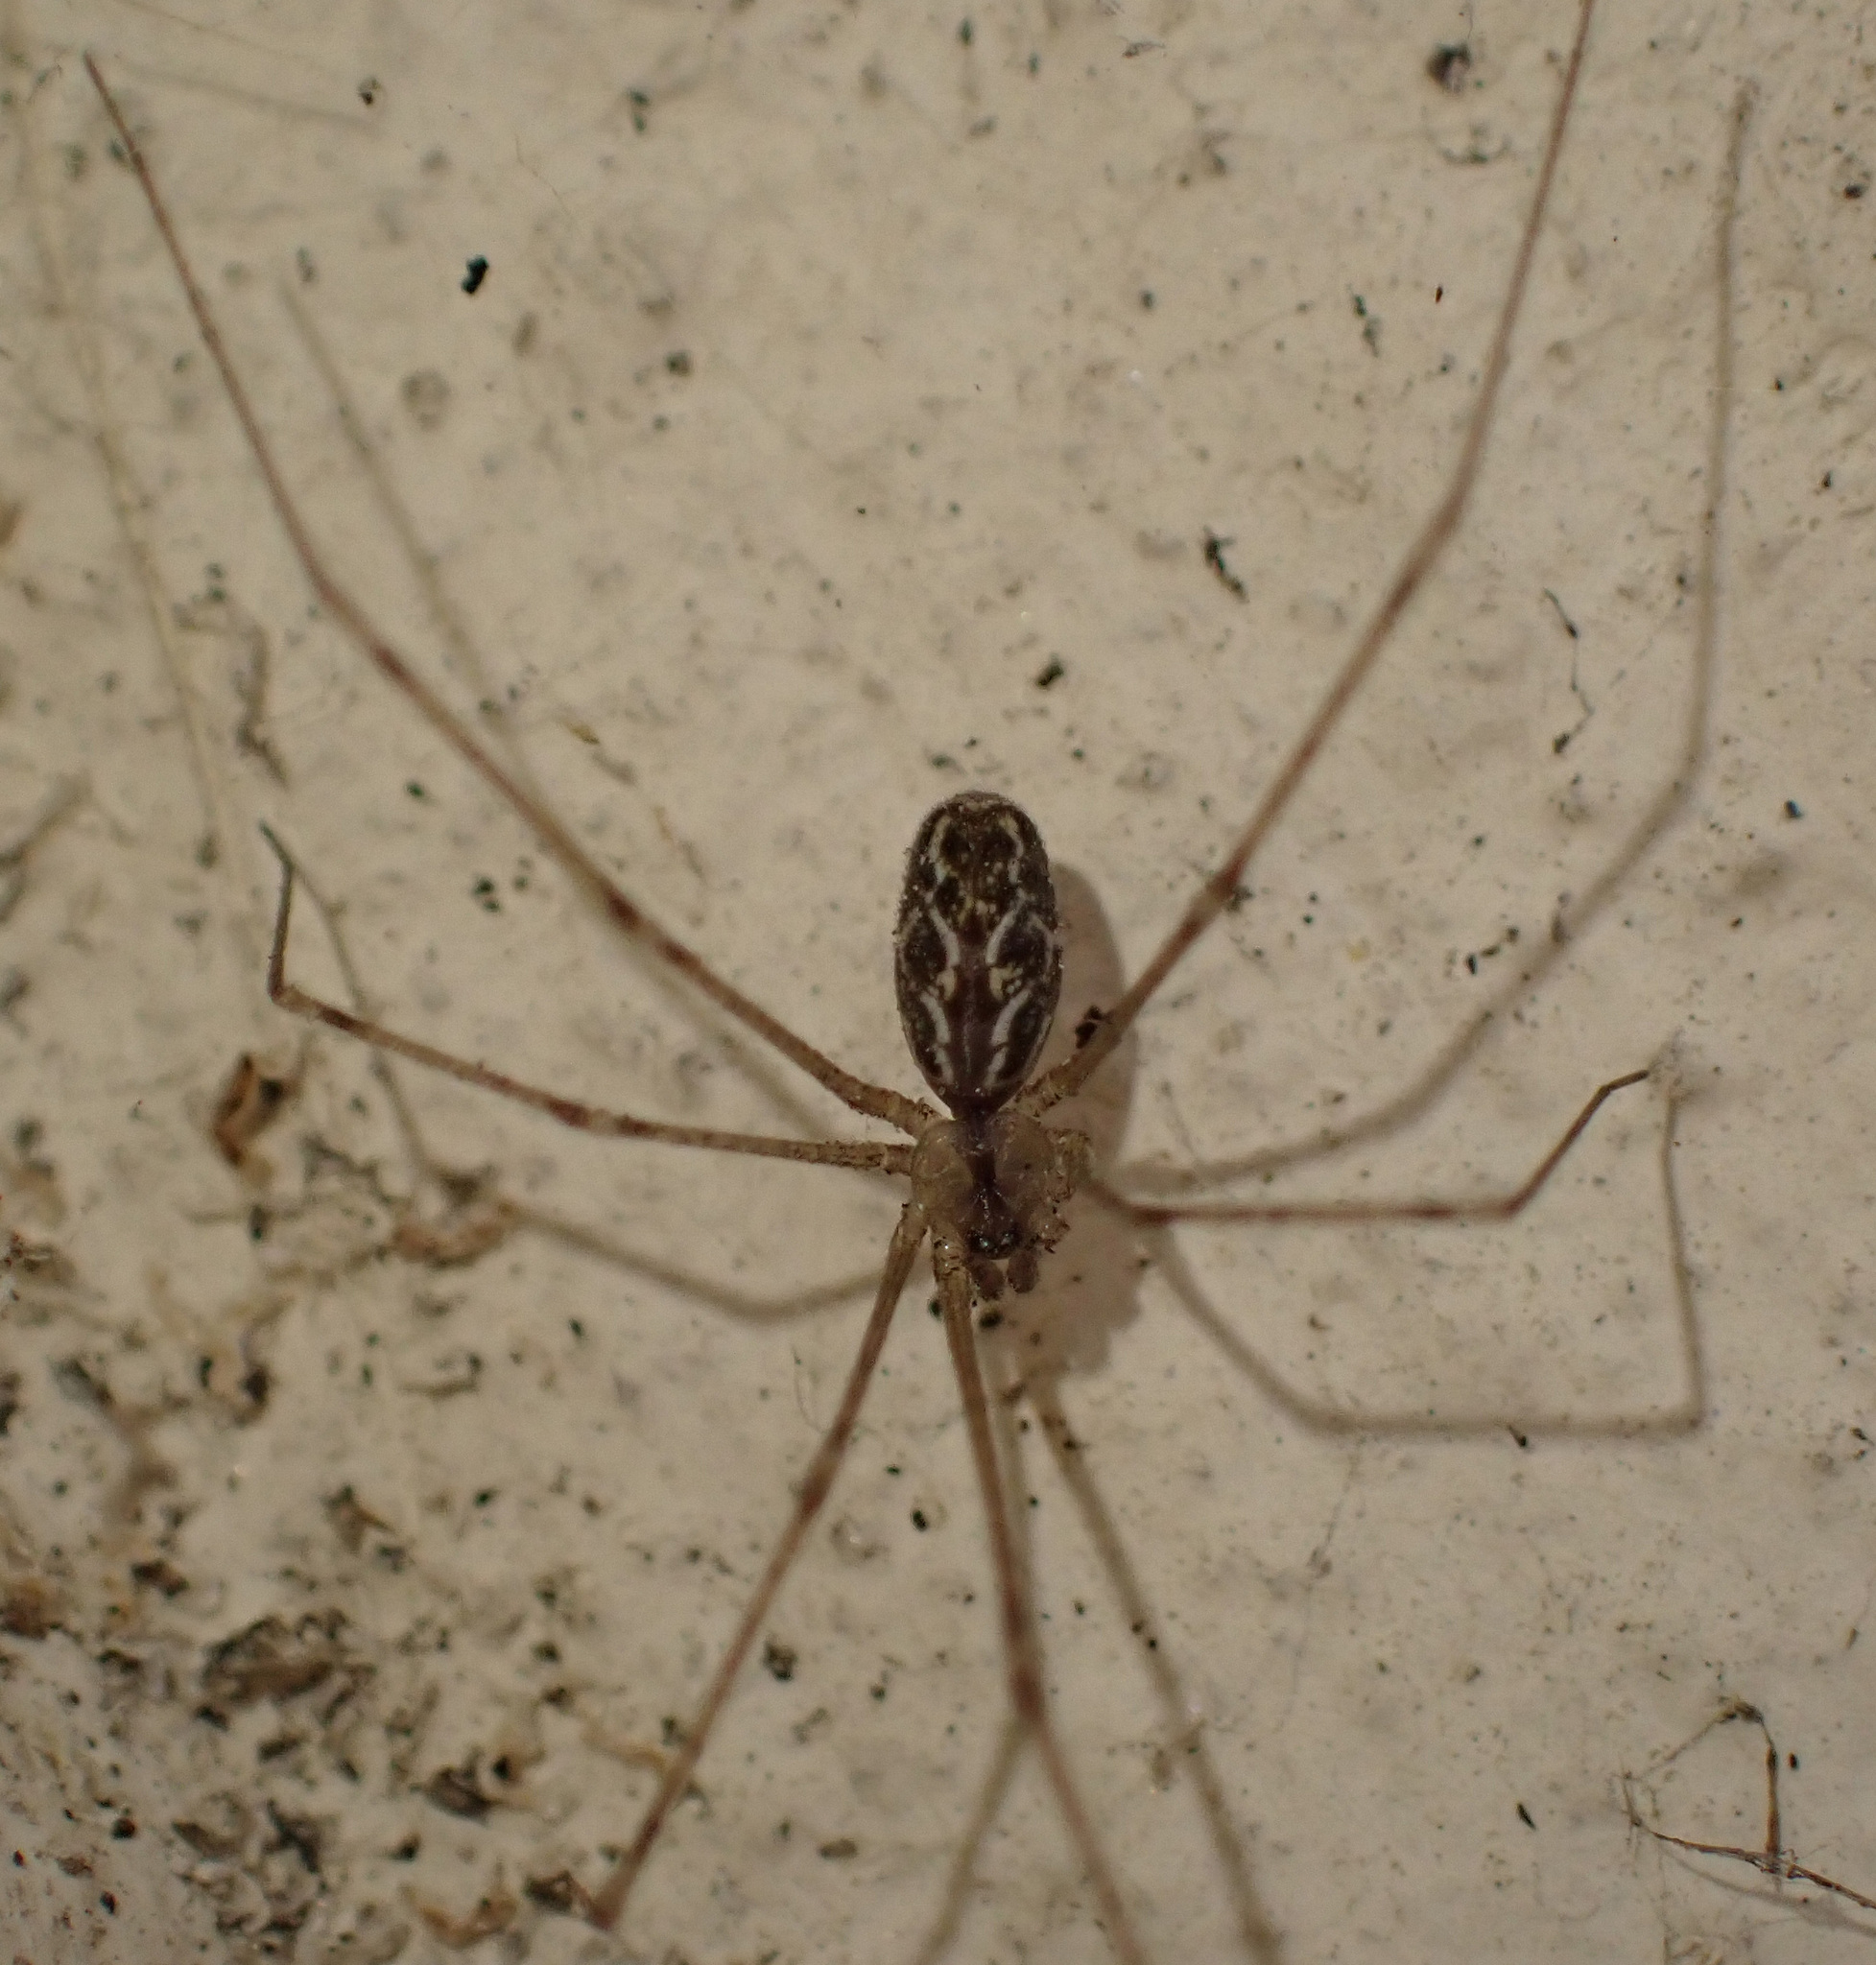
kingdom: Animalia
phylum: Arthropoda
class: Arachnida
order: Araneae
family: Pholcidae
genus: Holocnemus
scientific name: Holocnemus pluchei
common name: Marbled cellar spider
